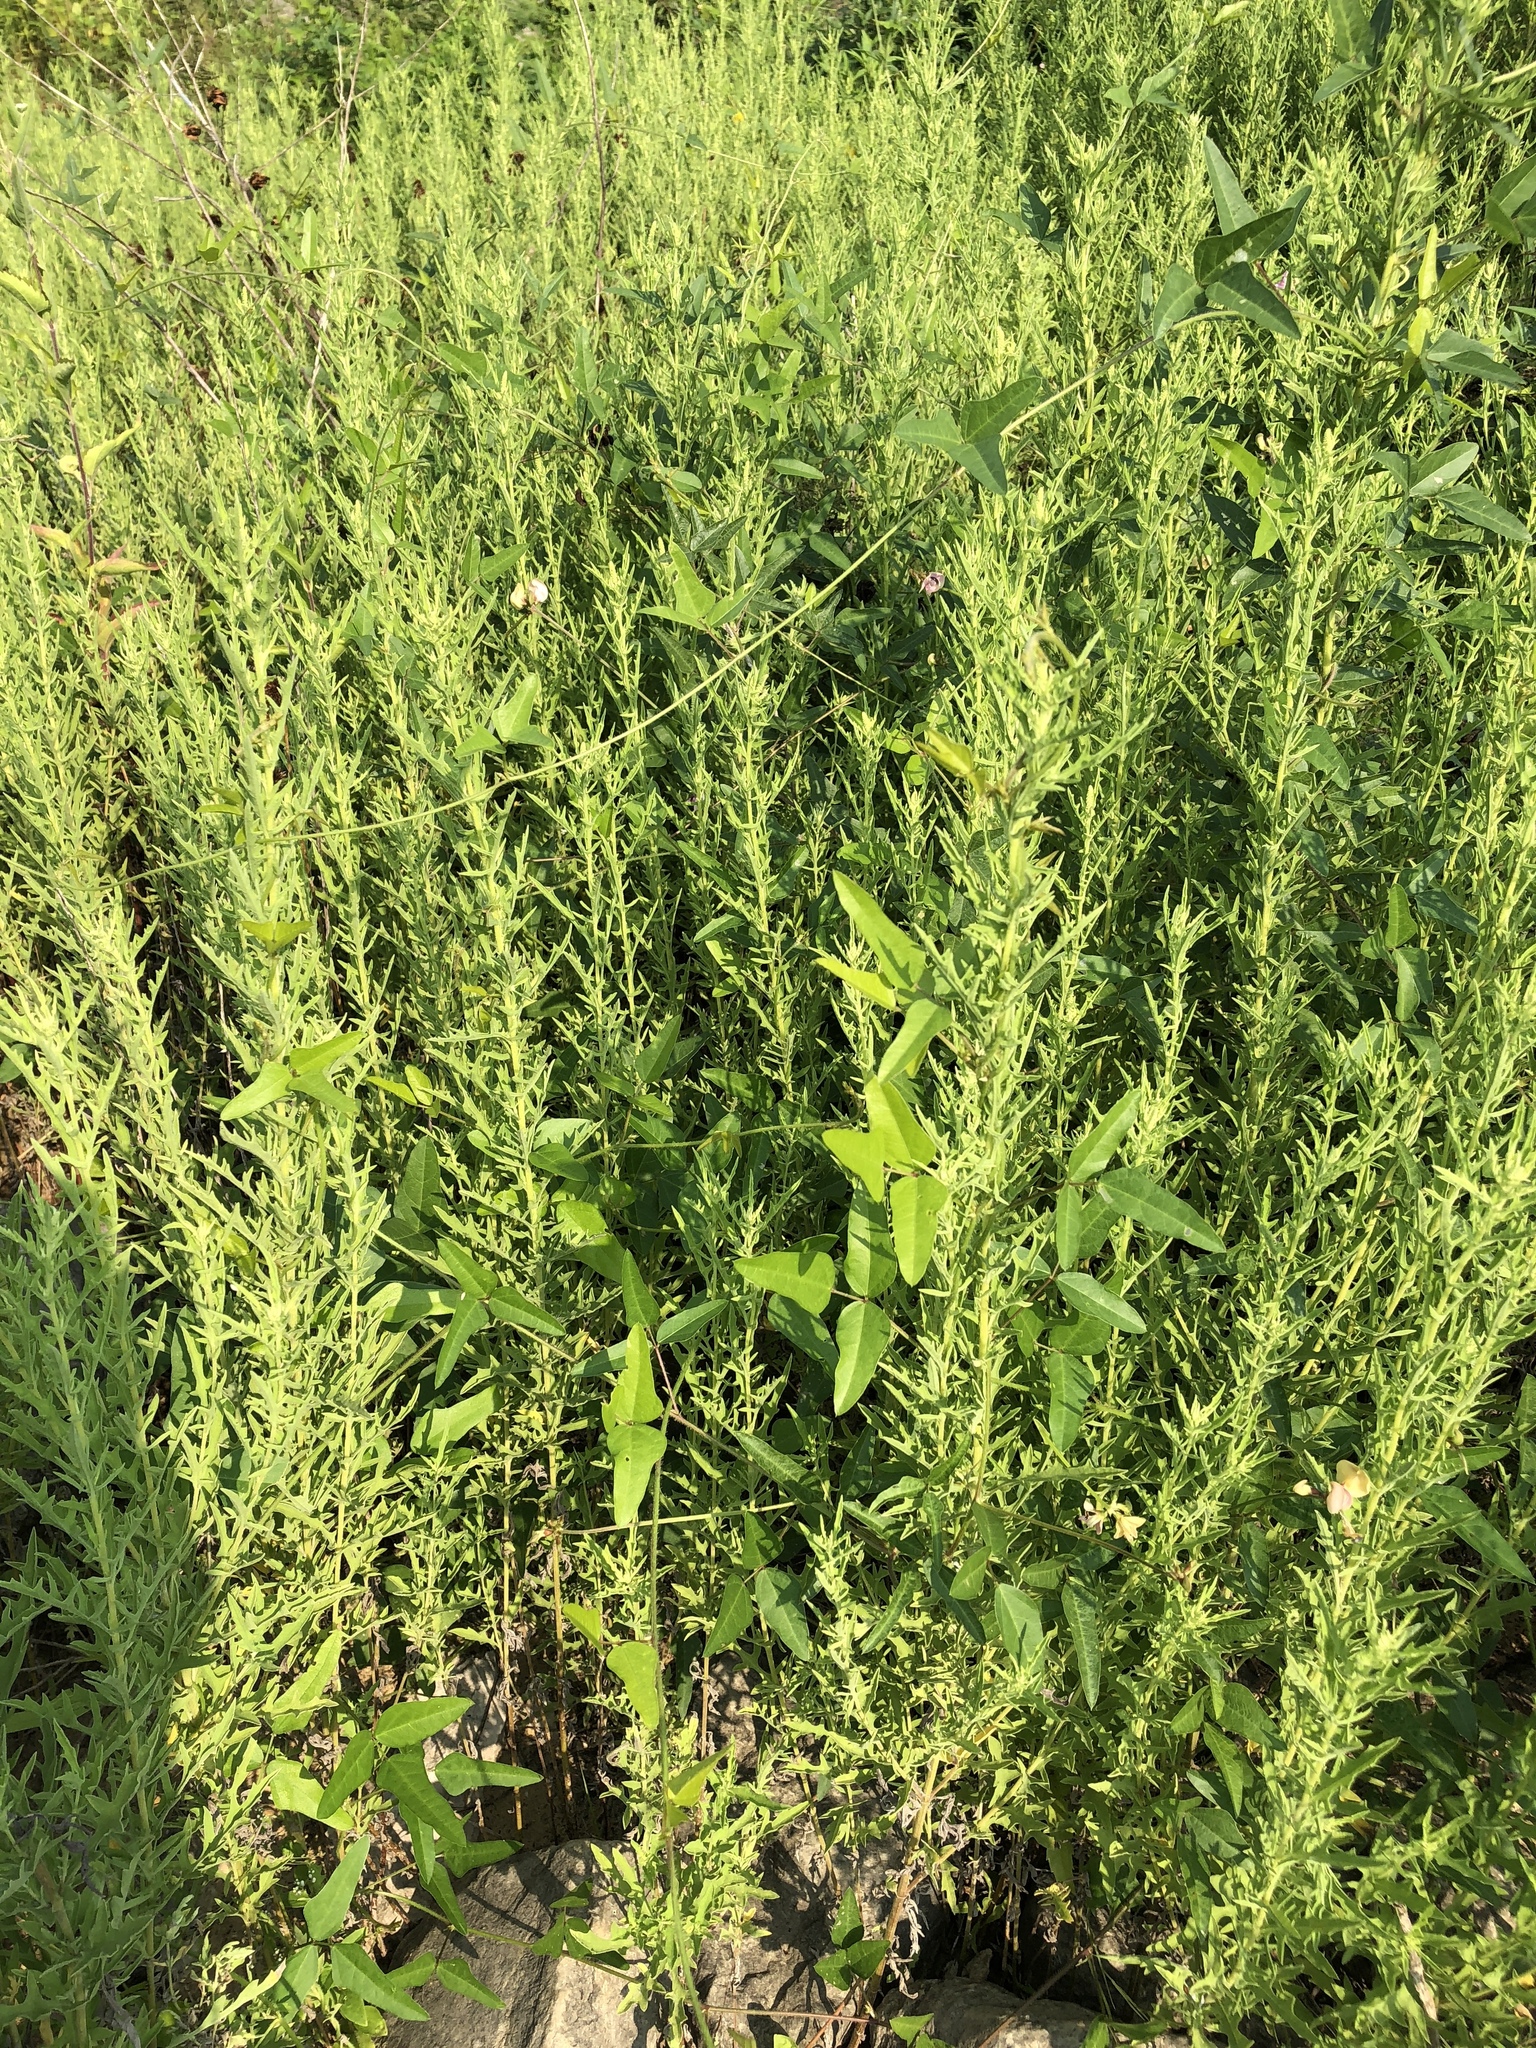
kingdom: Plantae
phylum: Tracheophyta
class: Magnoliopsida
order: Fabales
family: Fabaceae
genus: Strophostyles
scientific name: Strophostyles helvola
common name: Trailing wild bean
